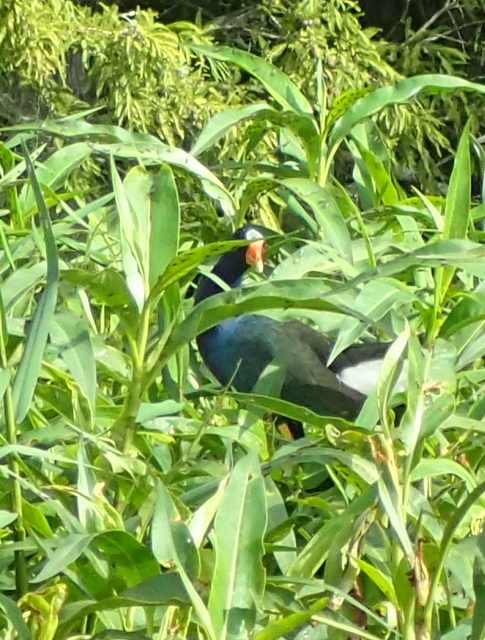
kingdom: Animalia
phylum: Chordata
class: Aves
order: Gruiformes
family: Rallidae
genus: Porphyrio
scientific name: Porphyrio martinica
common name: Purple gallinule
